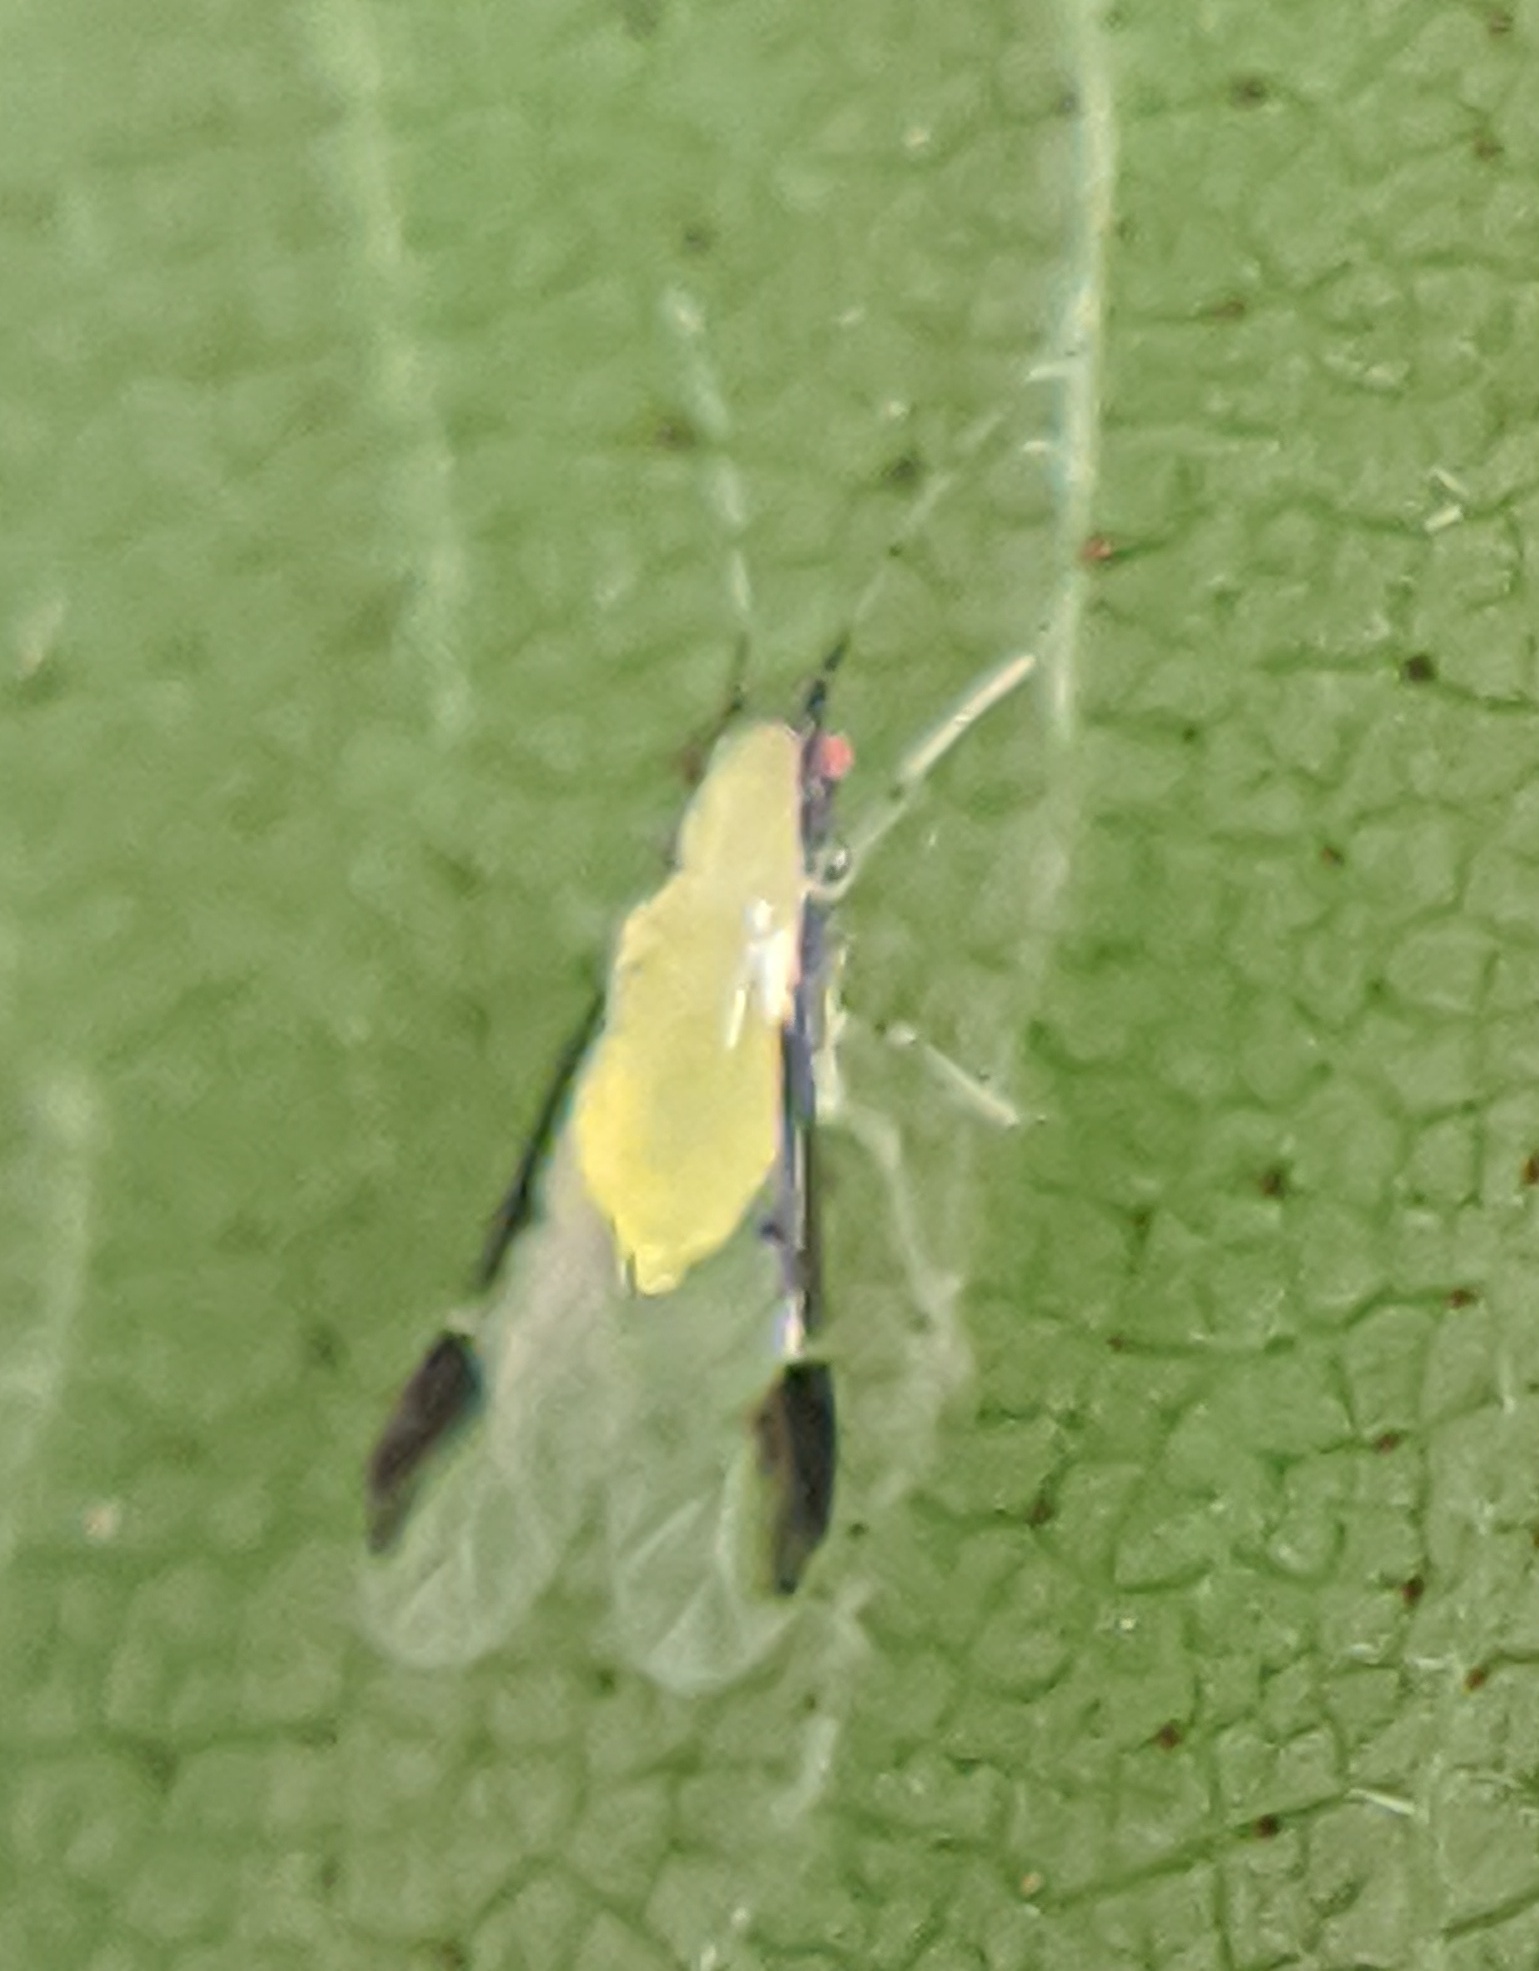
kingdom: Animalia
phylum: Arthropoda
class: Insecta
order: Hemiptera
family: Aphididae
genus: Monellia
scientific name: Monellia caryella
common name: Blackmargined aphid
